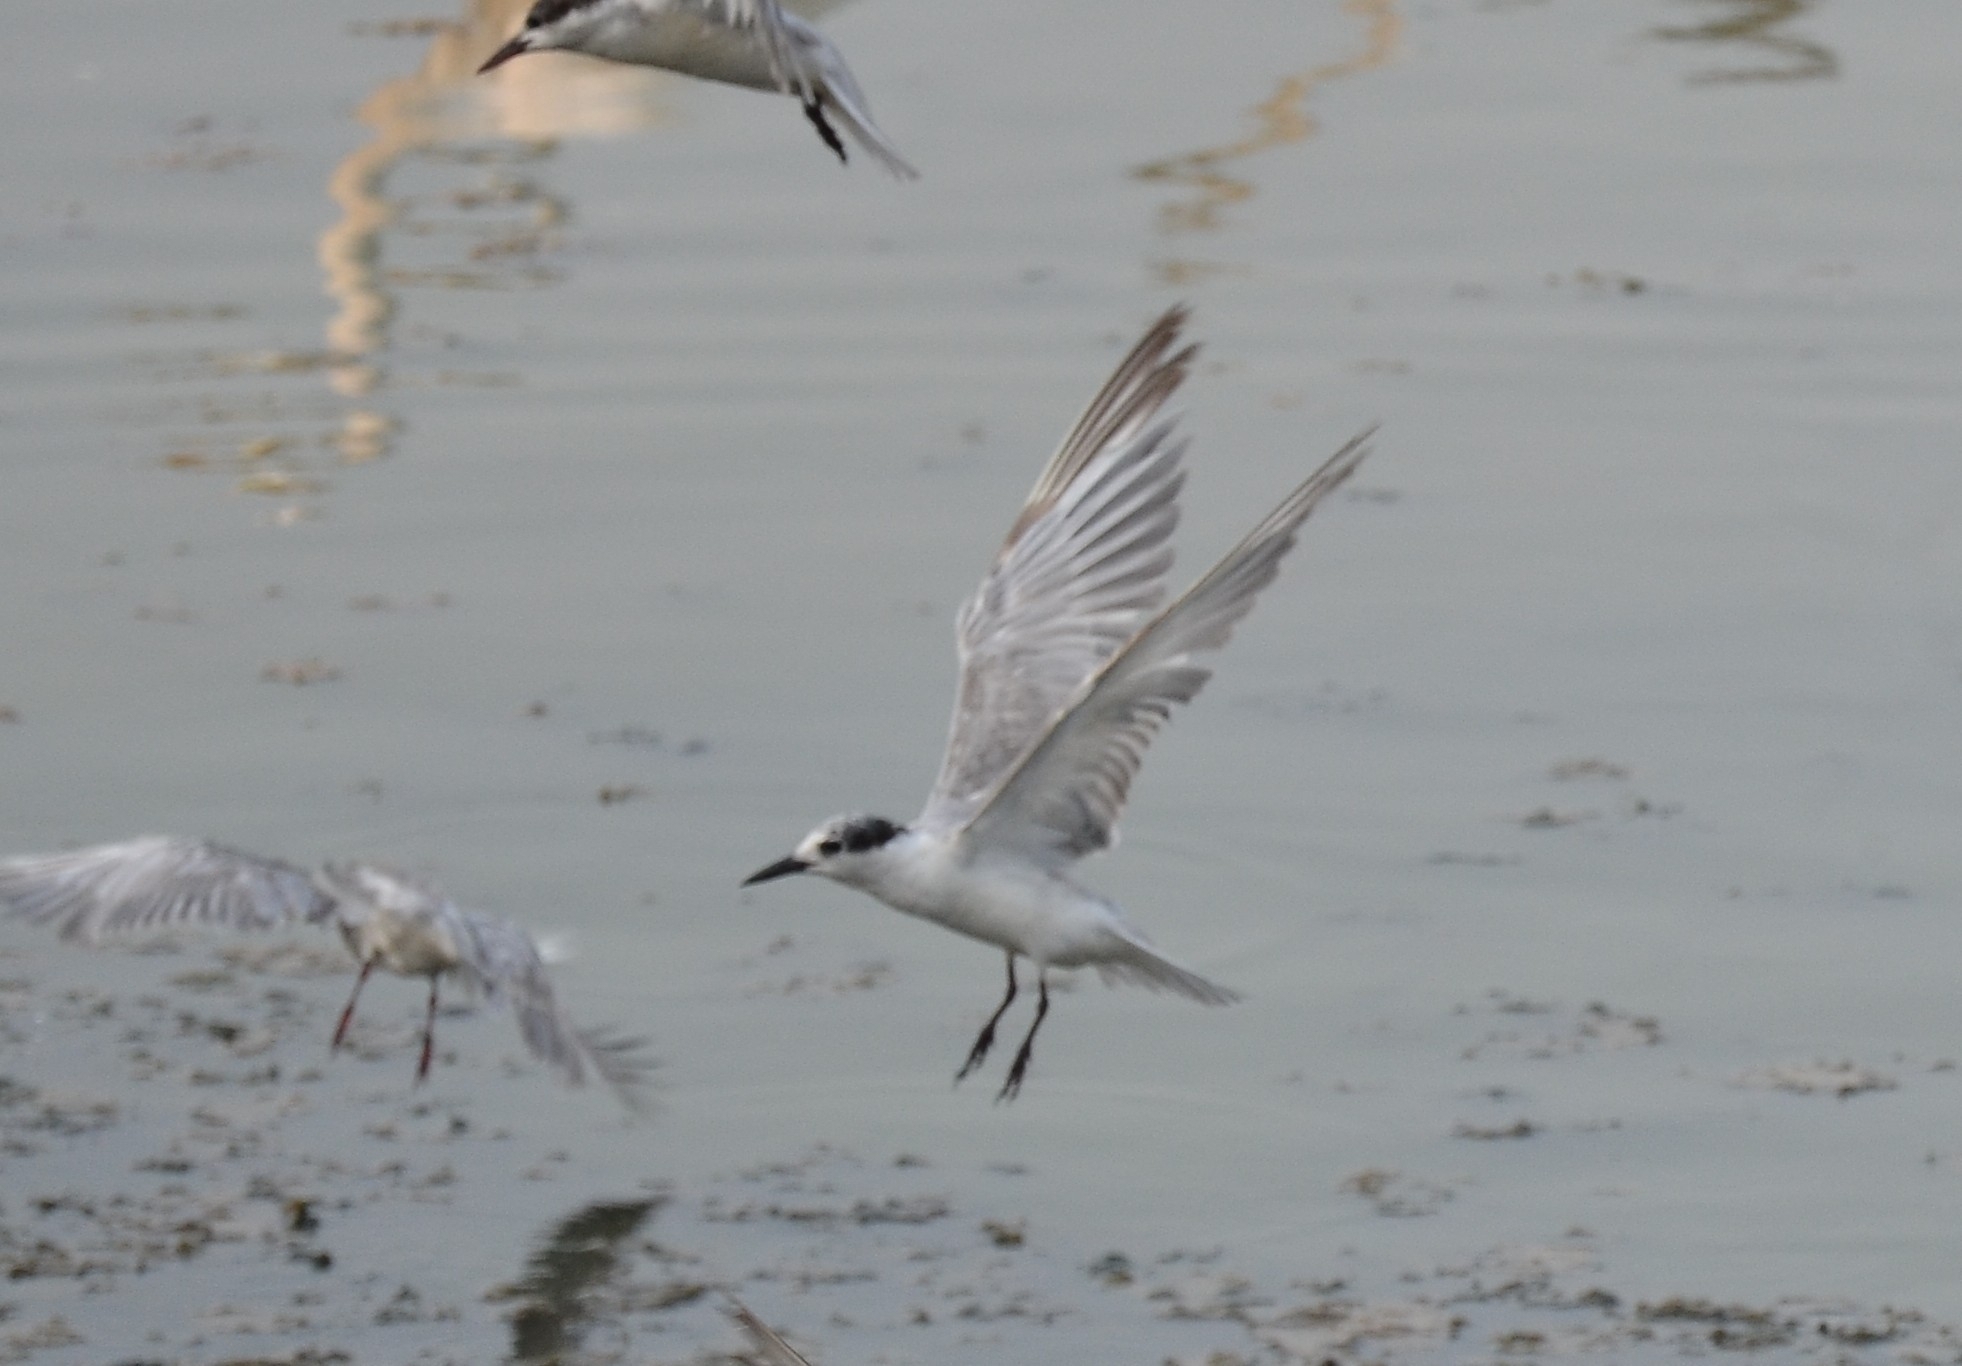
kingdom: Animalia
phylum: Chordata
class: Aves
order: Charadriiformes
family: Laridae
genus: Chlidonias
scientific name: Chlidonias hybrida
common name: Whiskered tern
